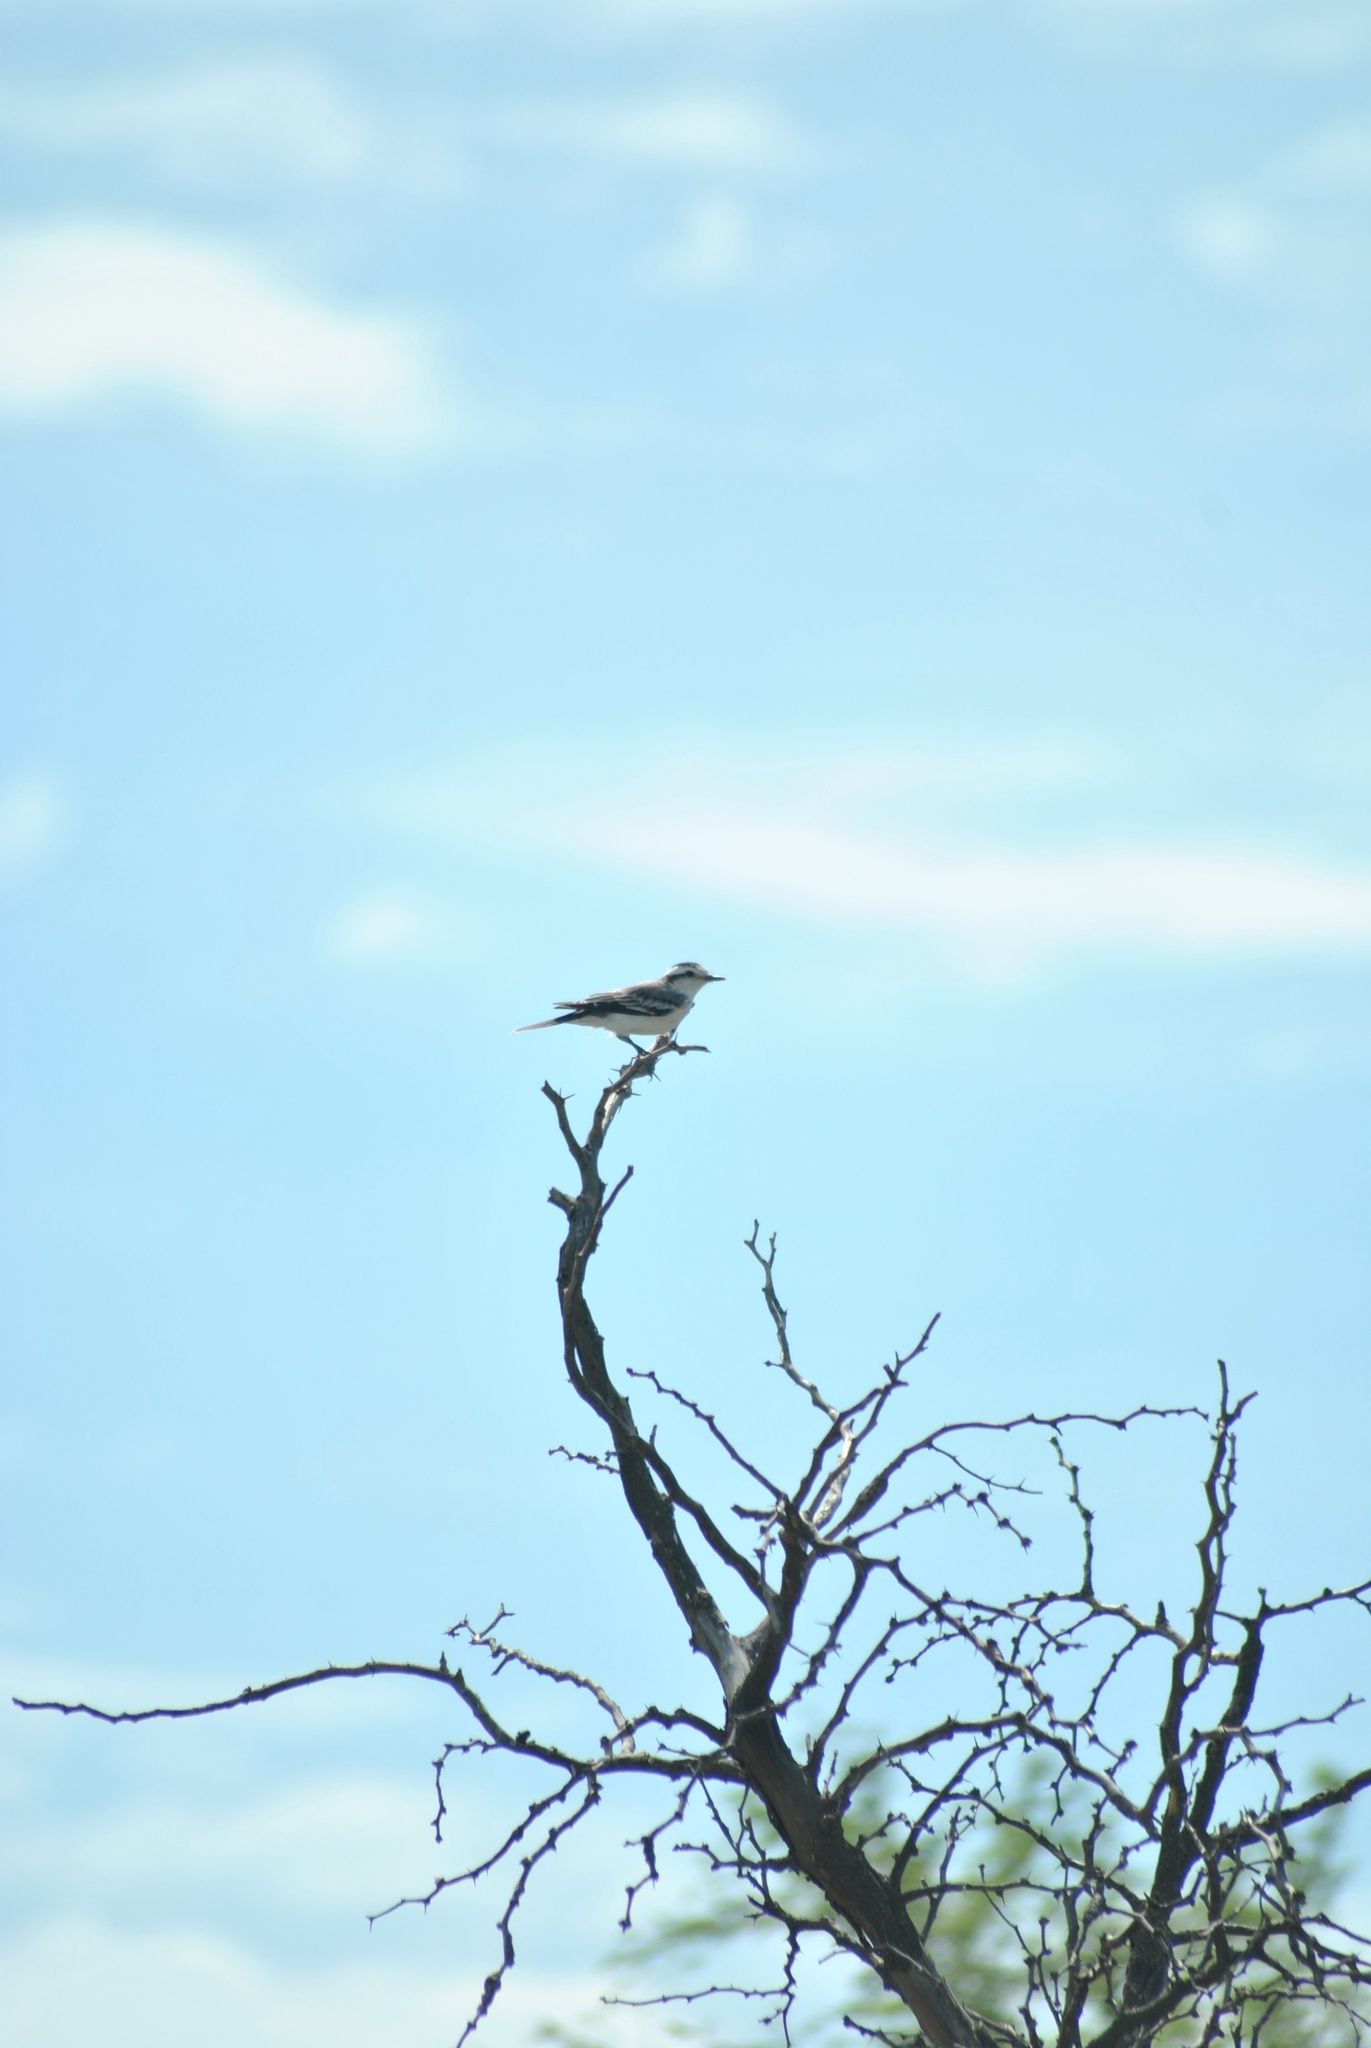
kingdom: Animalia
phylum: Chordata
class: Aves
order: Passeriformes
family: Tyrannidae
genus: Xolmis
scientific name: Xolmis coronatus
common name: Black-crowned monjita
